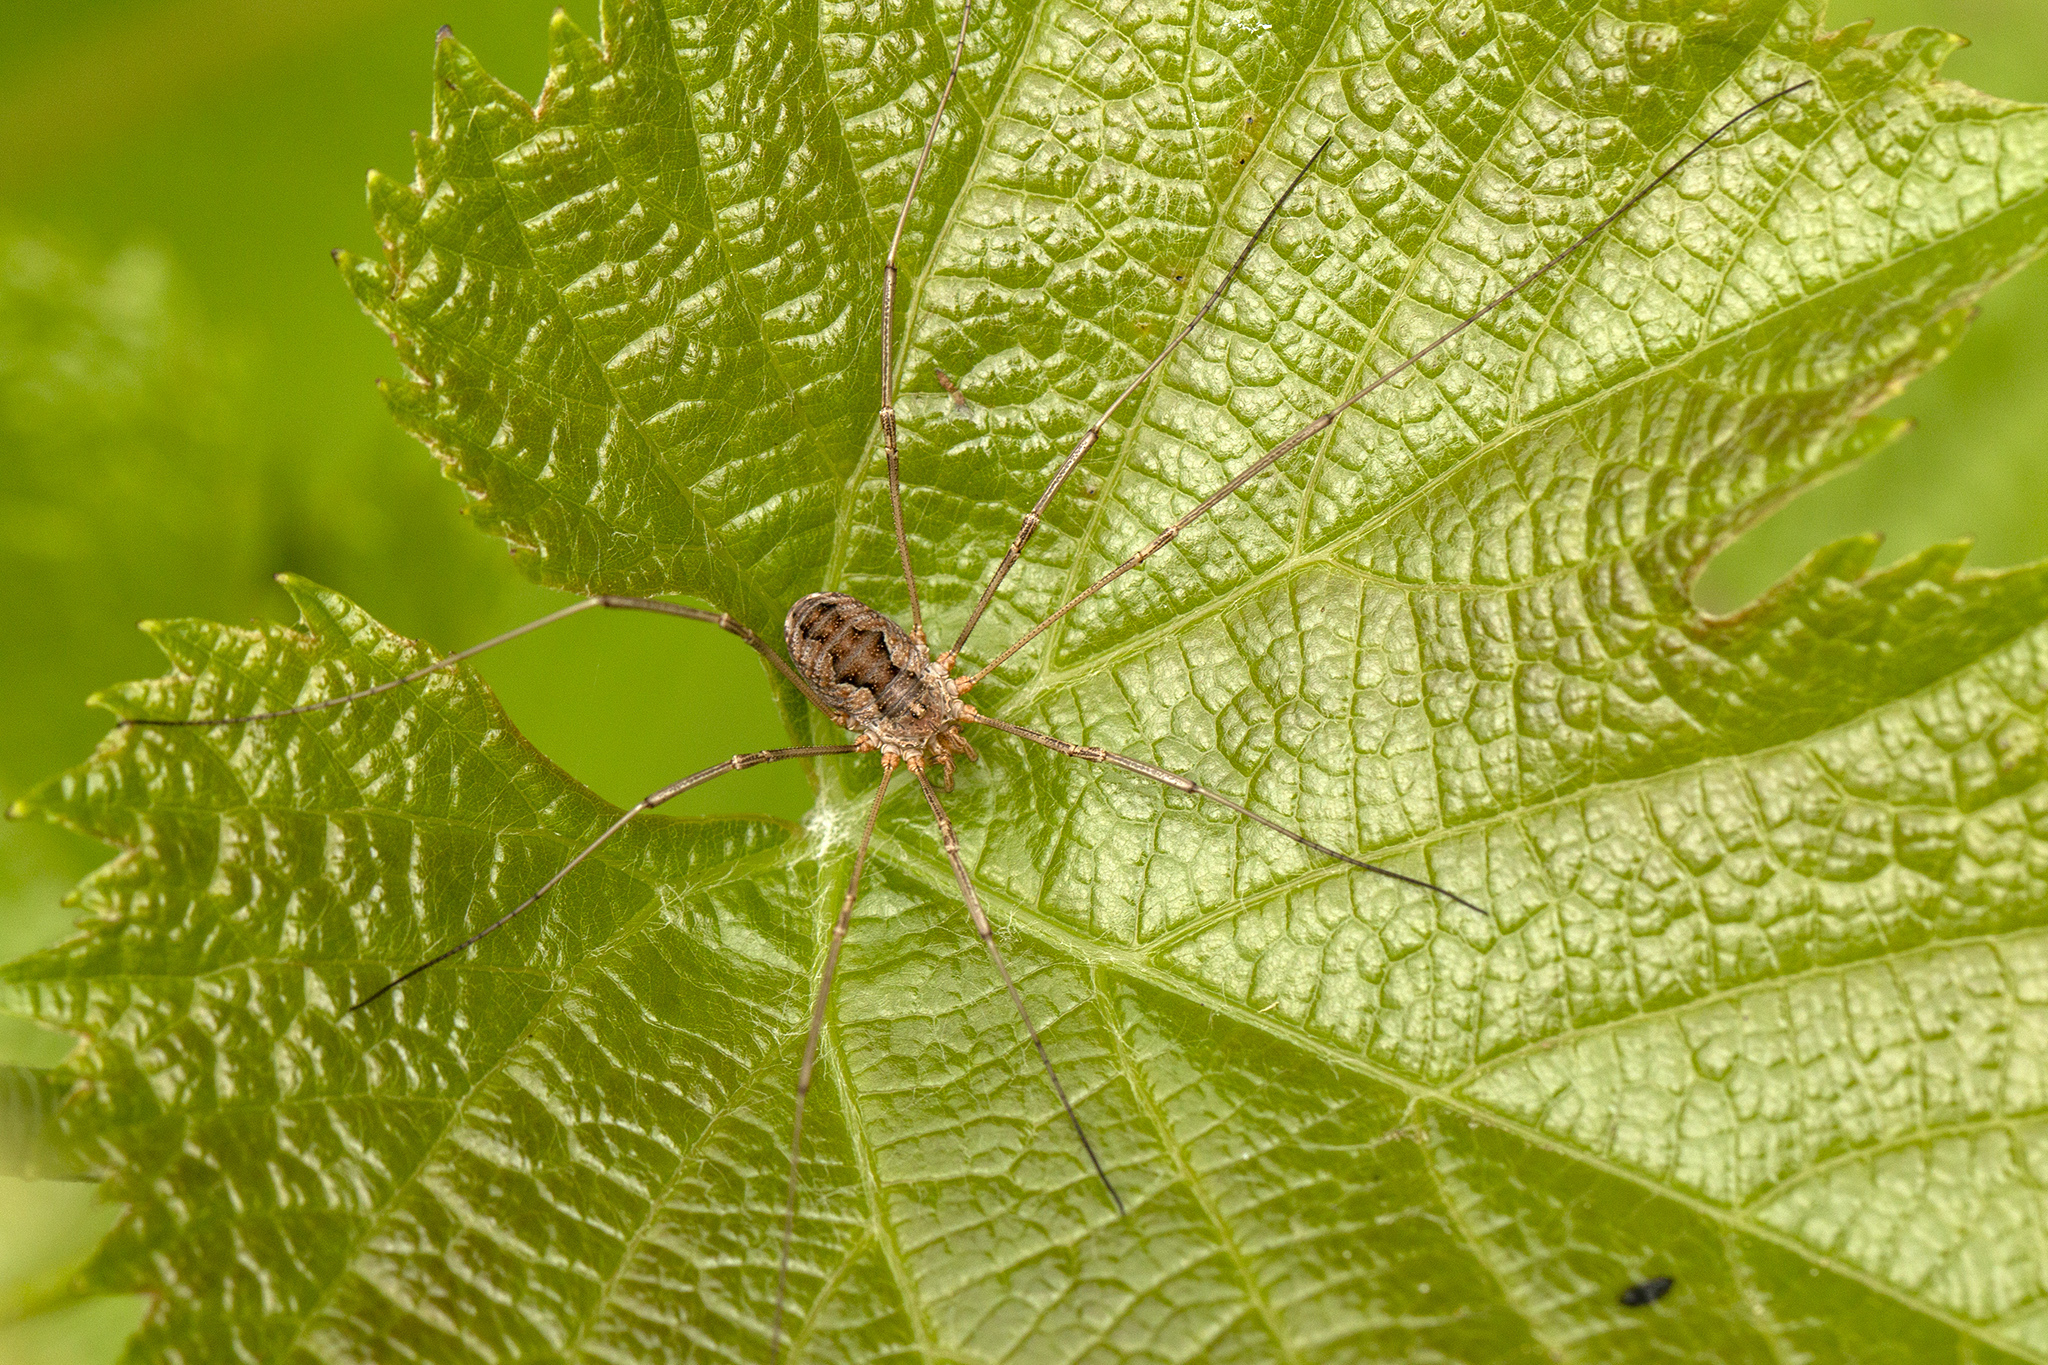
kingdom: Animalia
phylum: Arthropoda
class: Arachnida
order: Opiliones
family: Phalangiidae
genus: Phalangium
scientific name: Phalangium opilio
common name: Daddy longleg
